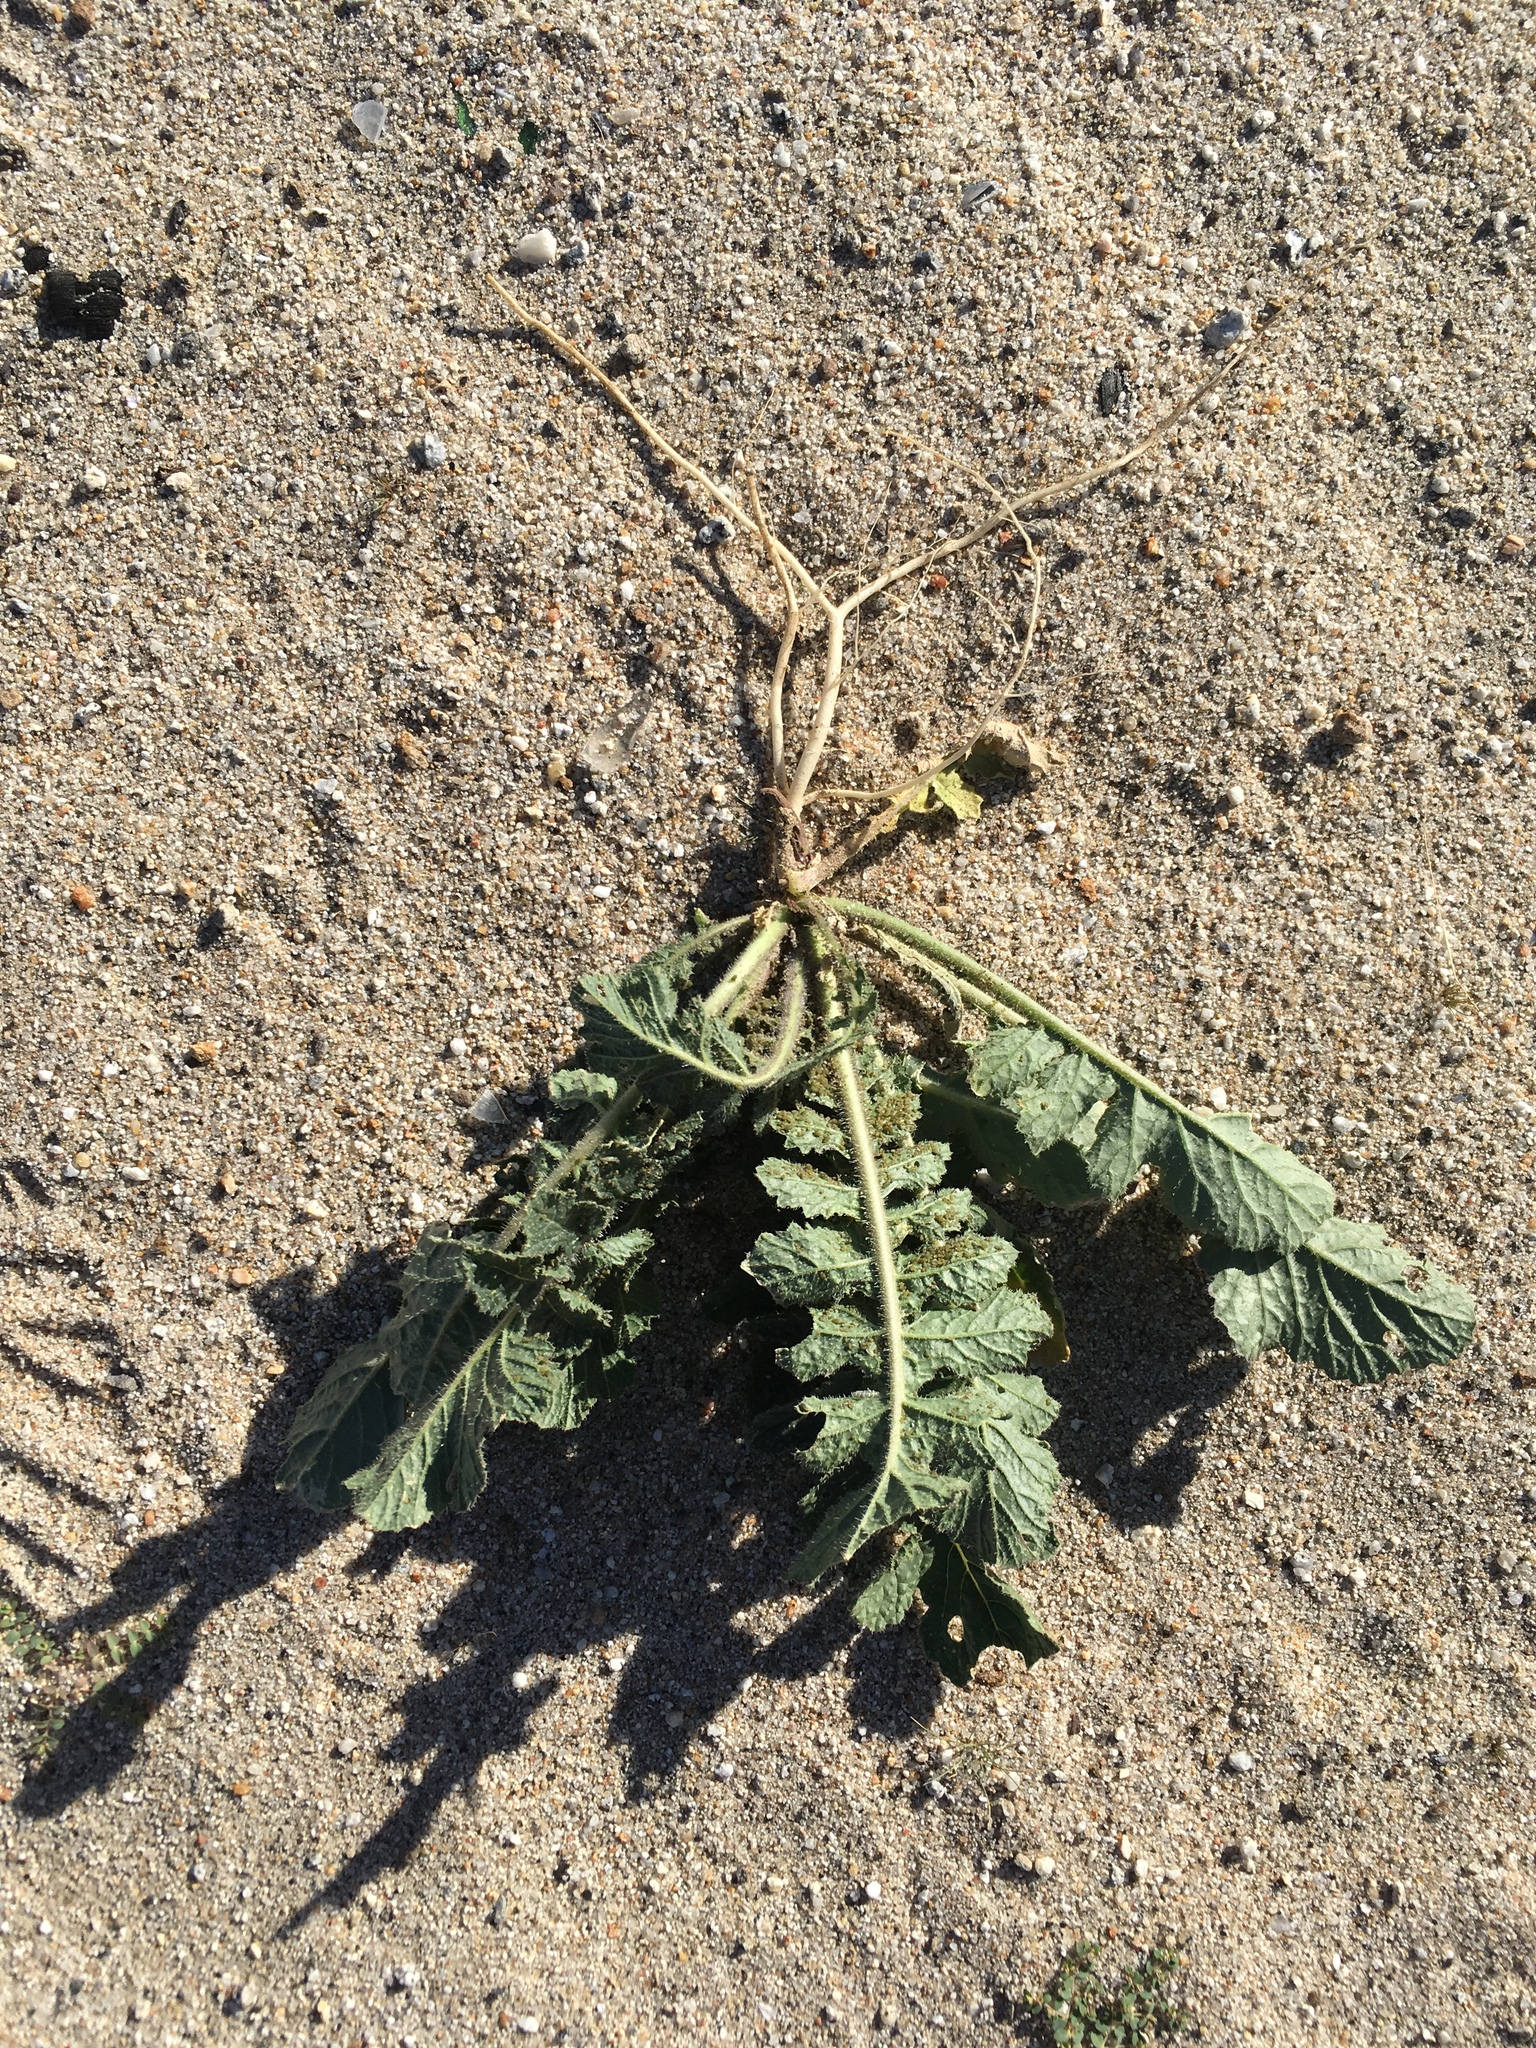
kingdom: Plantae
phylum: Tracheophyta
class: Magnoliopsida
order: Brassicales
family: Brassicaceae
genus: Brassica
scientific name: Brassica tournefortii
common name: Pale cabbage
